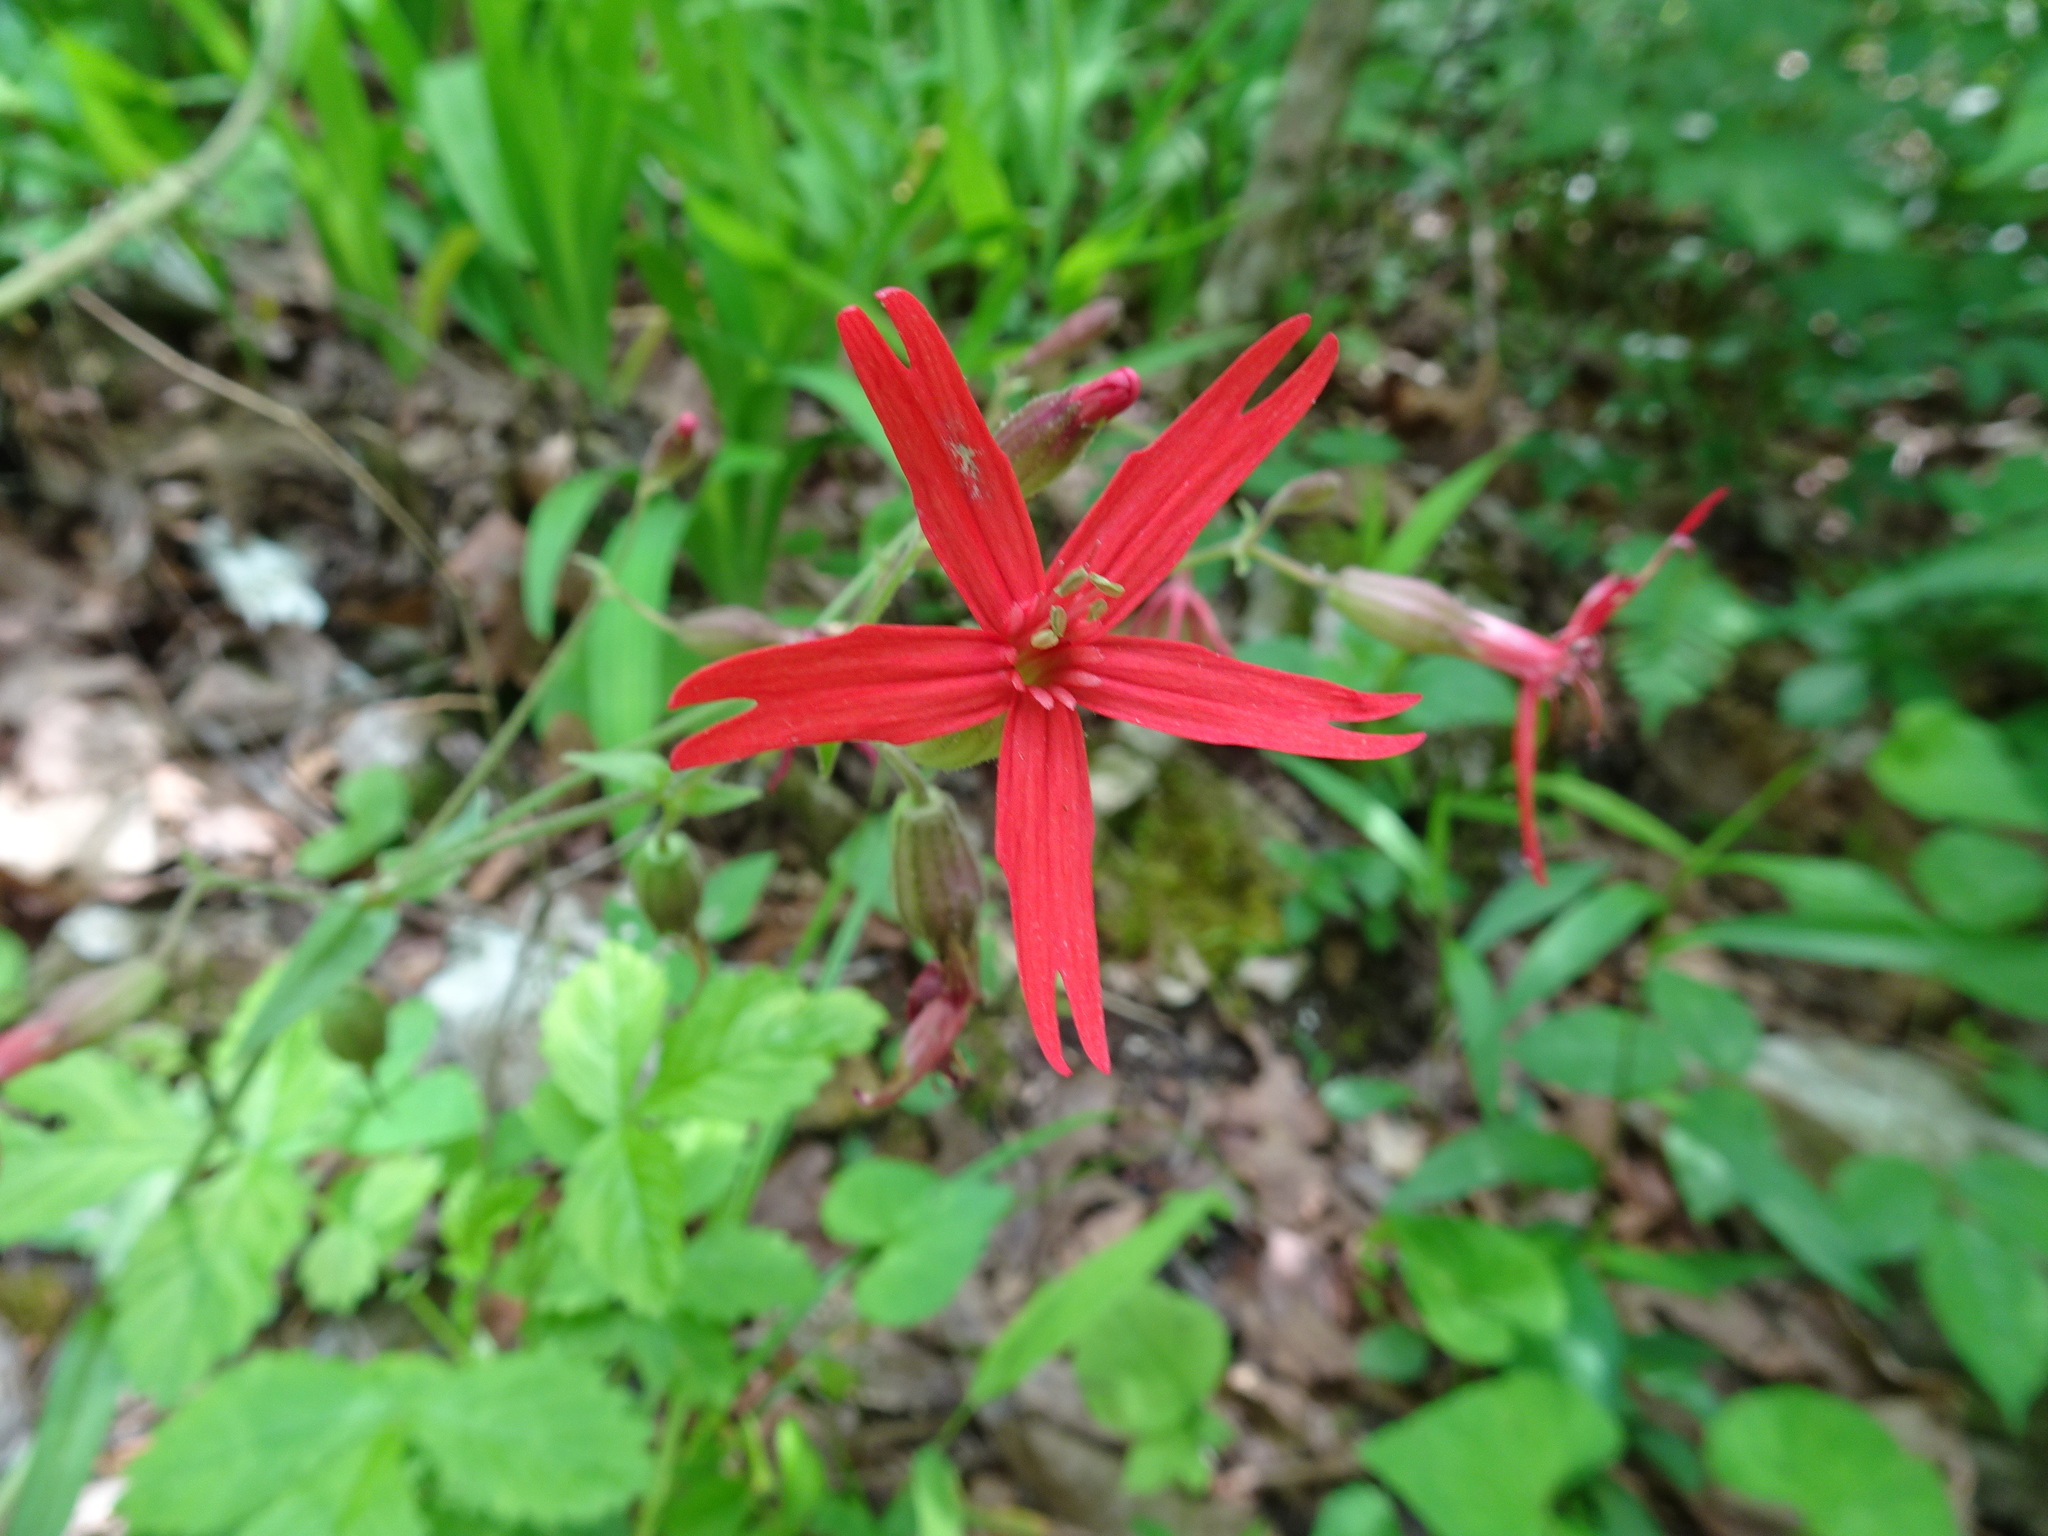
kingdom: Plantae
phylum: Tracheophyta
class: Magnoliopsida
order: Caryophyllales
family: Caryophyllaceae
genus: Silene
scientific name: Silene virginica
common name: Fire-pink
